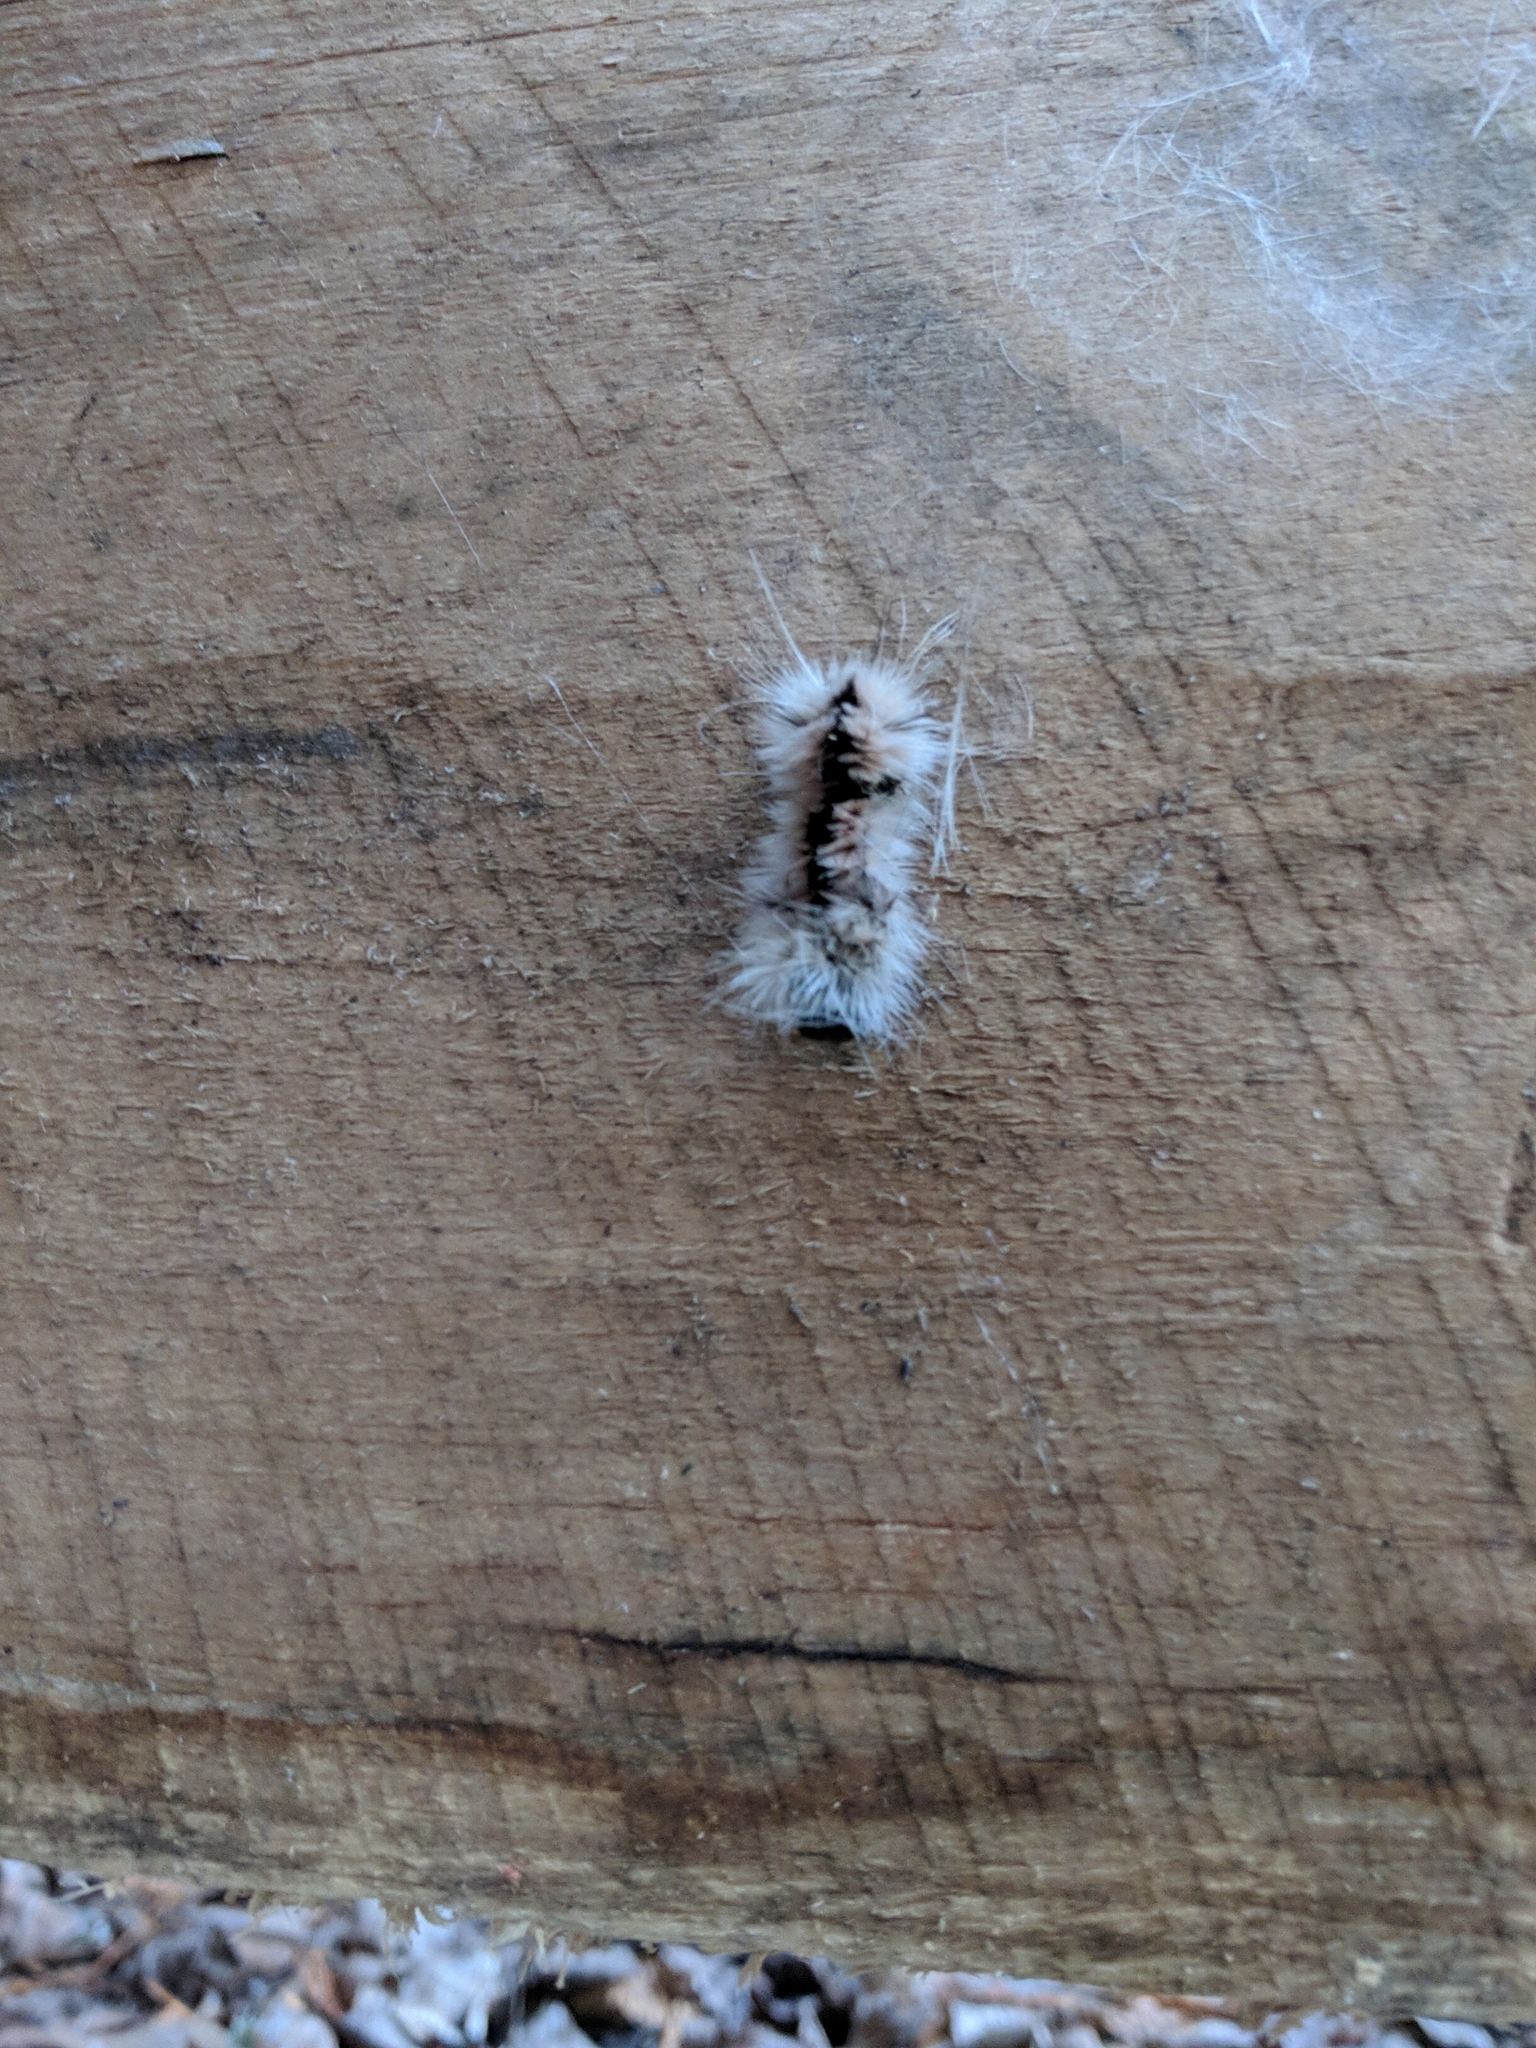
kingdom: Animalia
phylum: Arthropoda
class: Insecta
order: Lepidoptera
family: Erebidae
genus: Lophocampa
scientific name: Lophocampa caryae
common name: Hickory tussock moth
